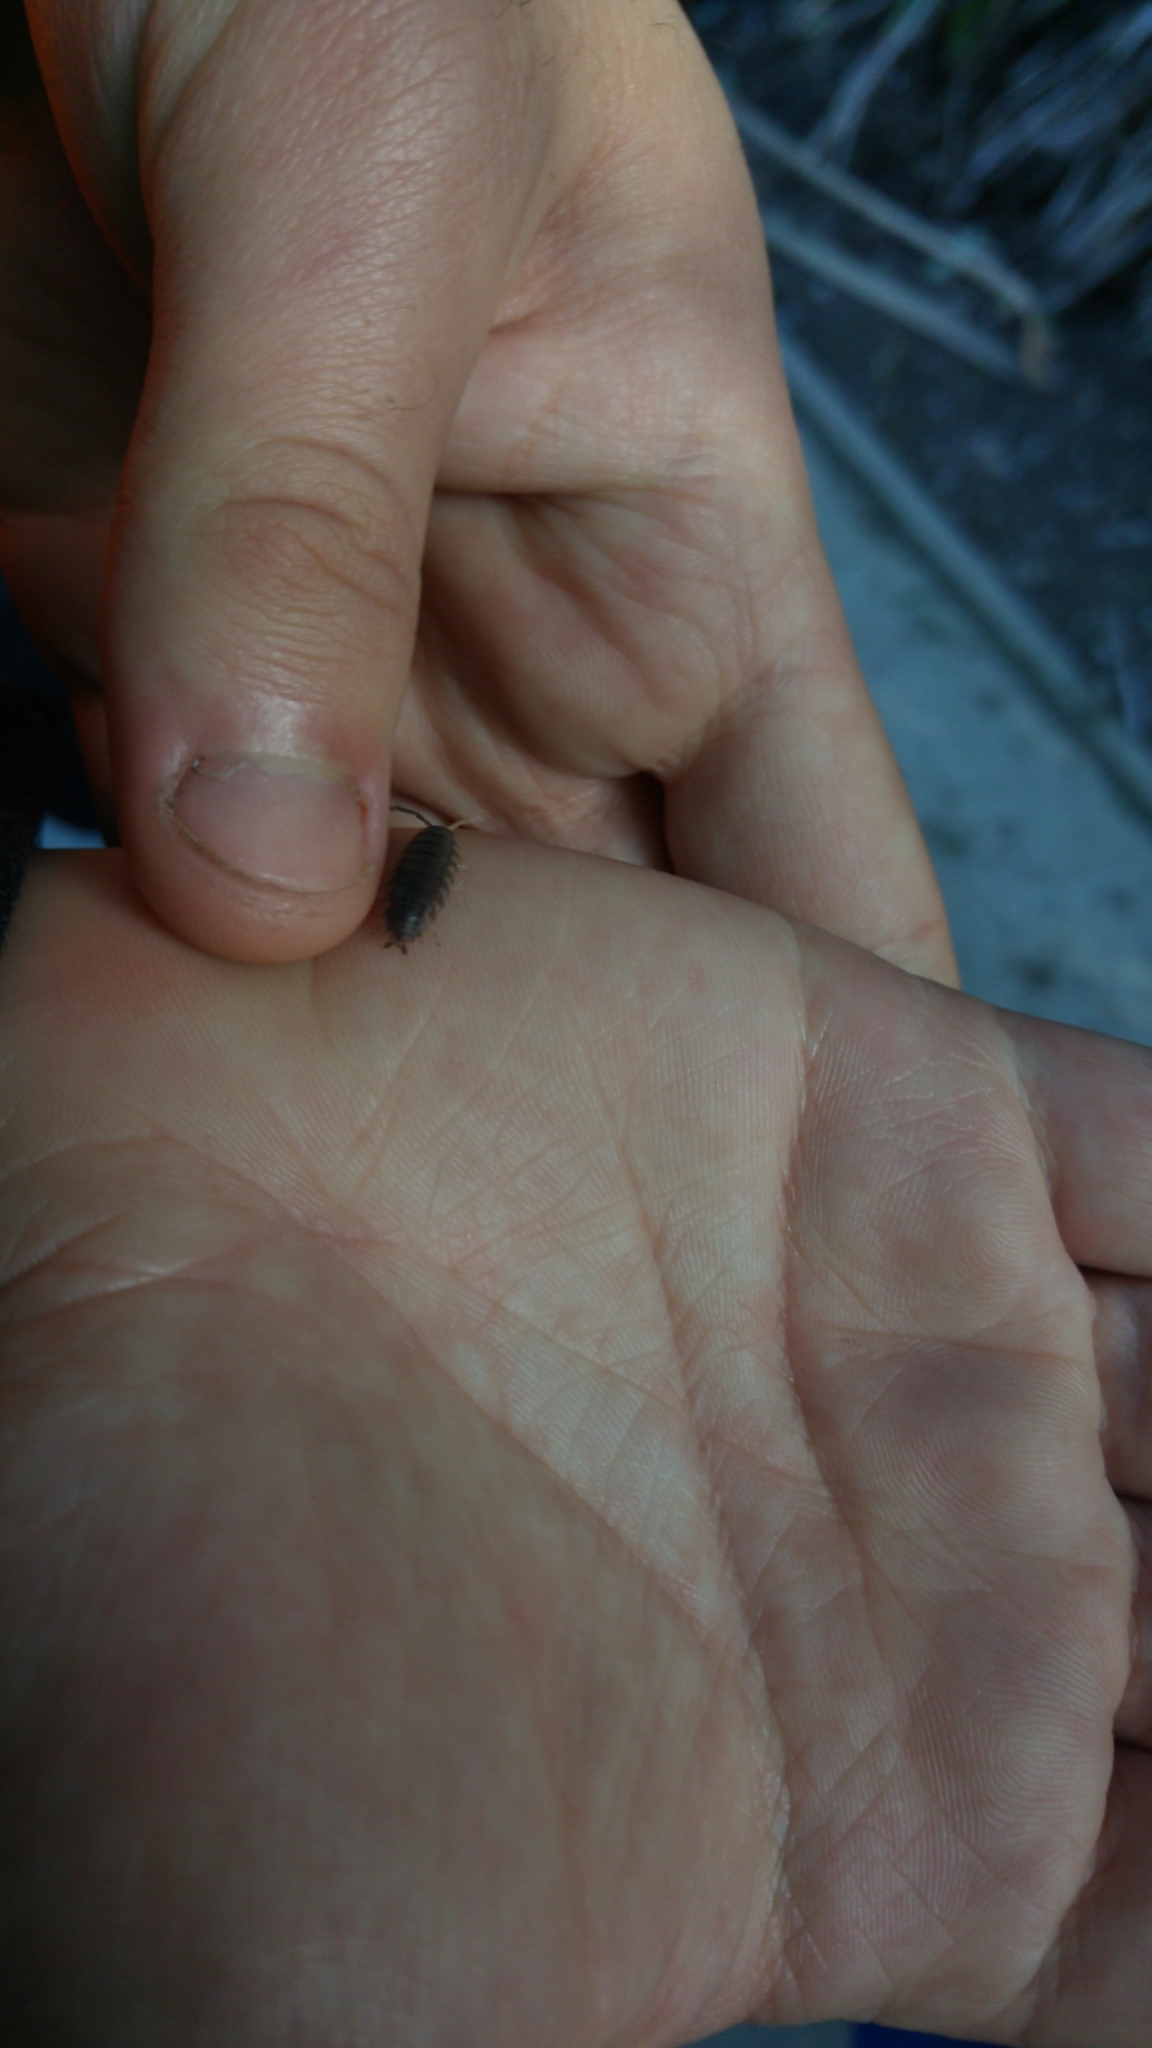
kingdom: Animalia
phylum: Arthropoda
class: Malacostraca
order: Isopoda
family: Porcellionidae
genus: Porcellio
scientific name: Porcellio scaber
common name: Common rough woodlouse
